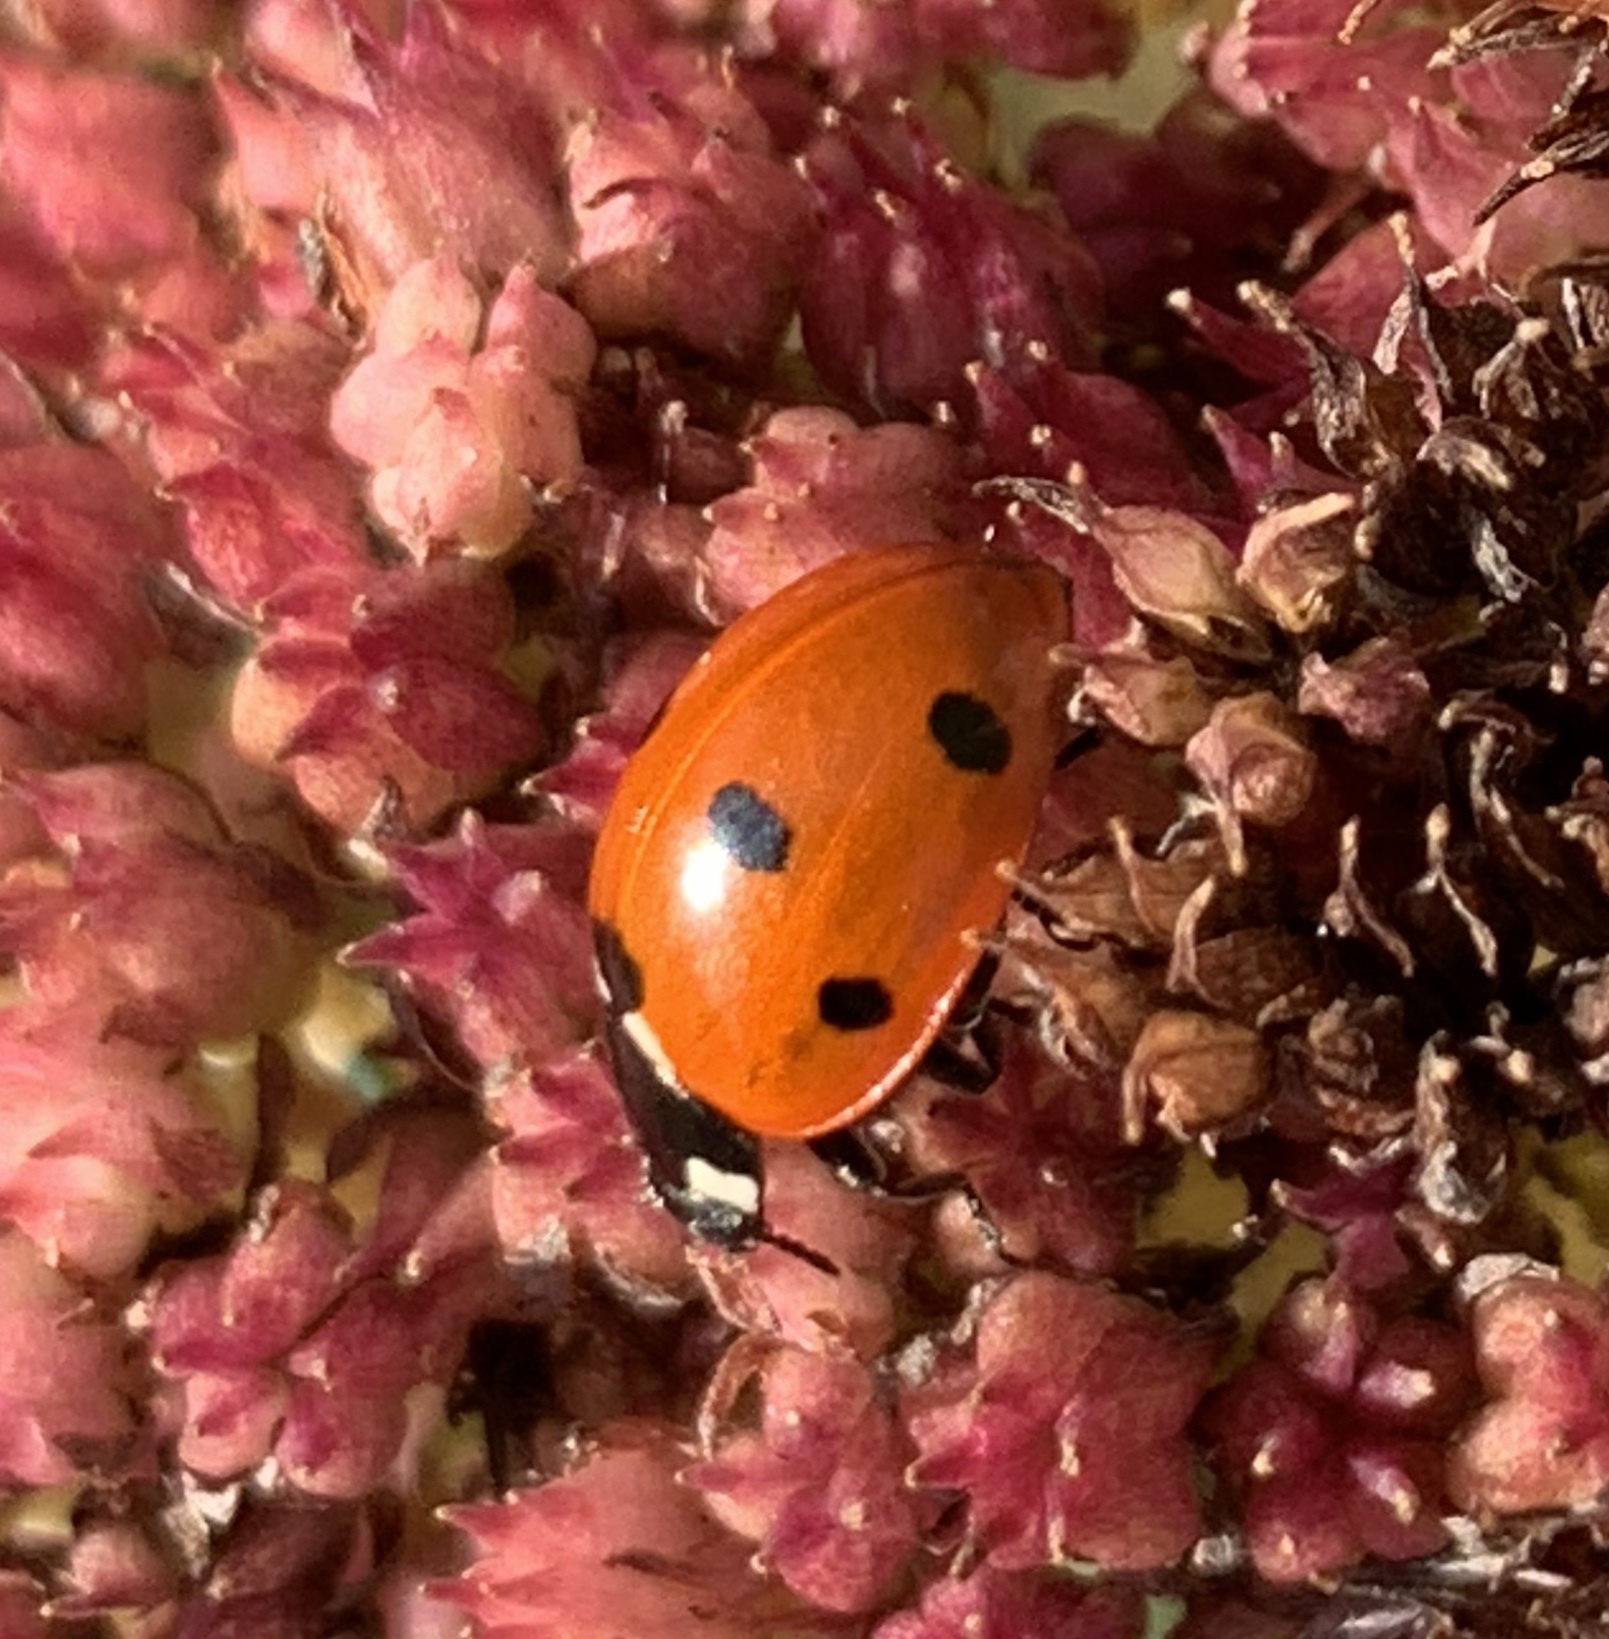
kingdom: Animalia
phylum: Arthropoda
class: Insecta
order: Coleoptera
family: Coccinellidae
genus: Coccinella
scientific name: Coccinella septempunctata
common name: Sevenspotted lady beetle
